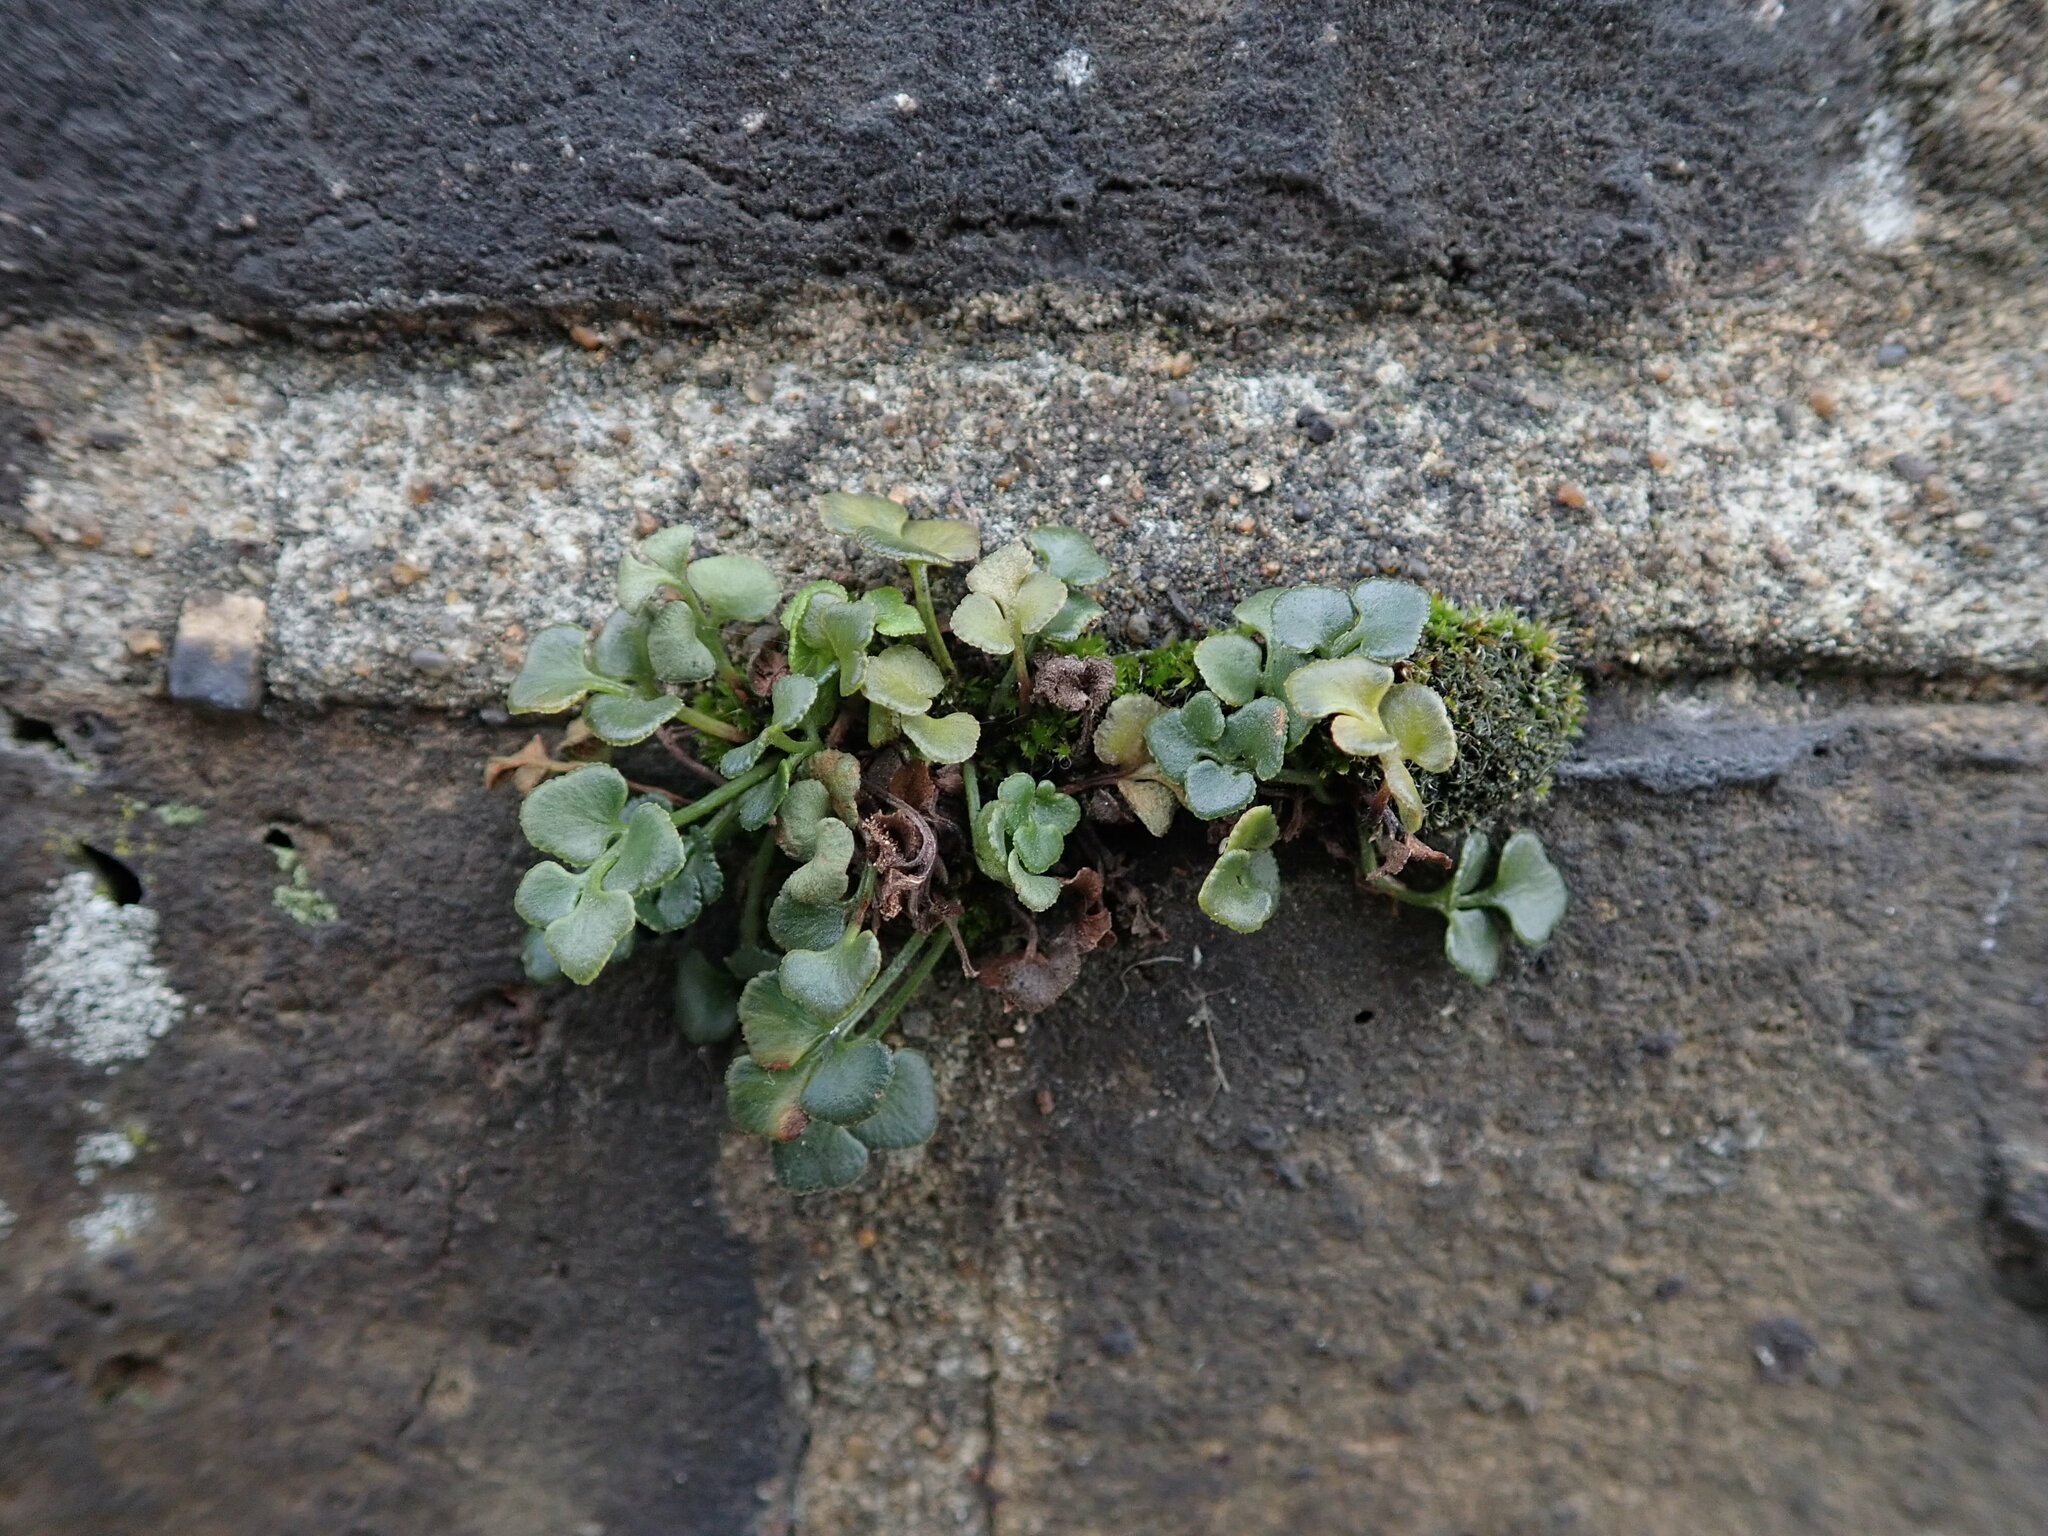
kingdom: Plantae
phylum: Tracheophyta
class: Polypodiopsida
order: Polypodiales
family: Aspleniaceae
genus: Asplenium
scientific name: Asplenium ruta-muraria
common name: Wall-rue
